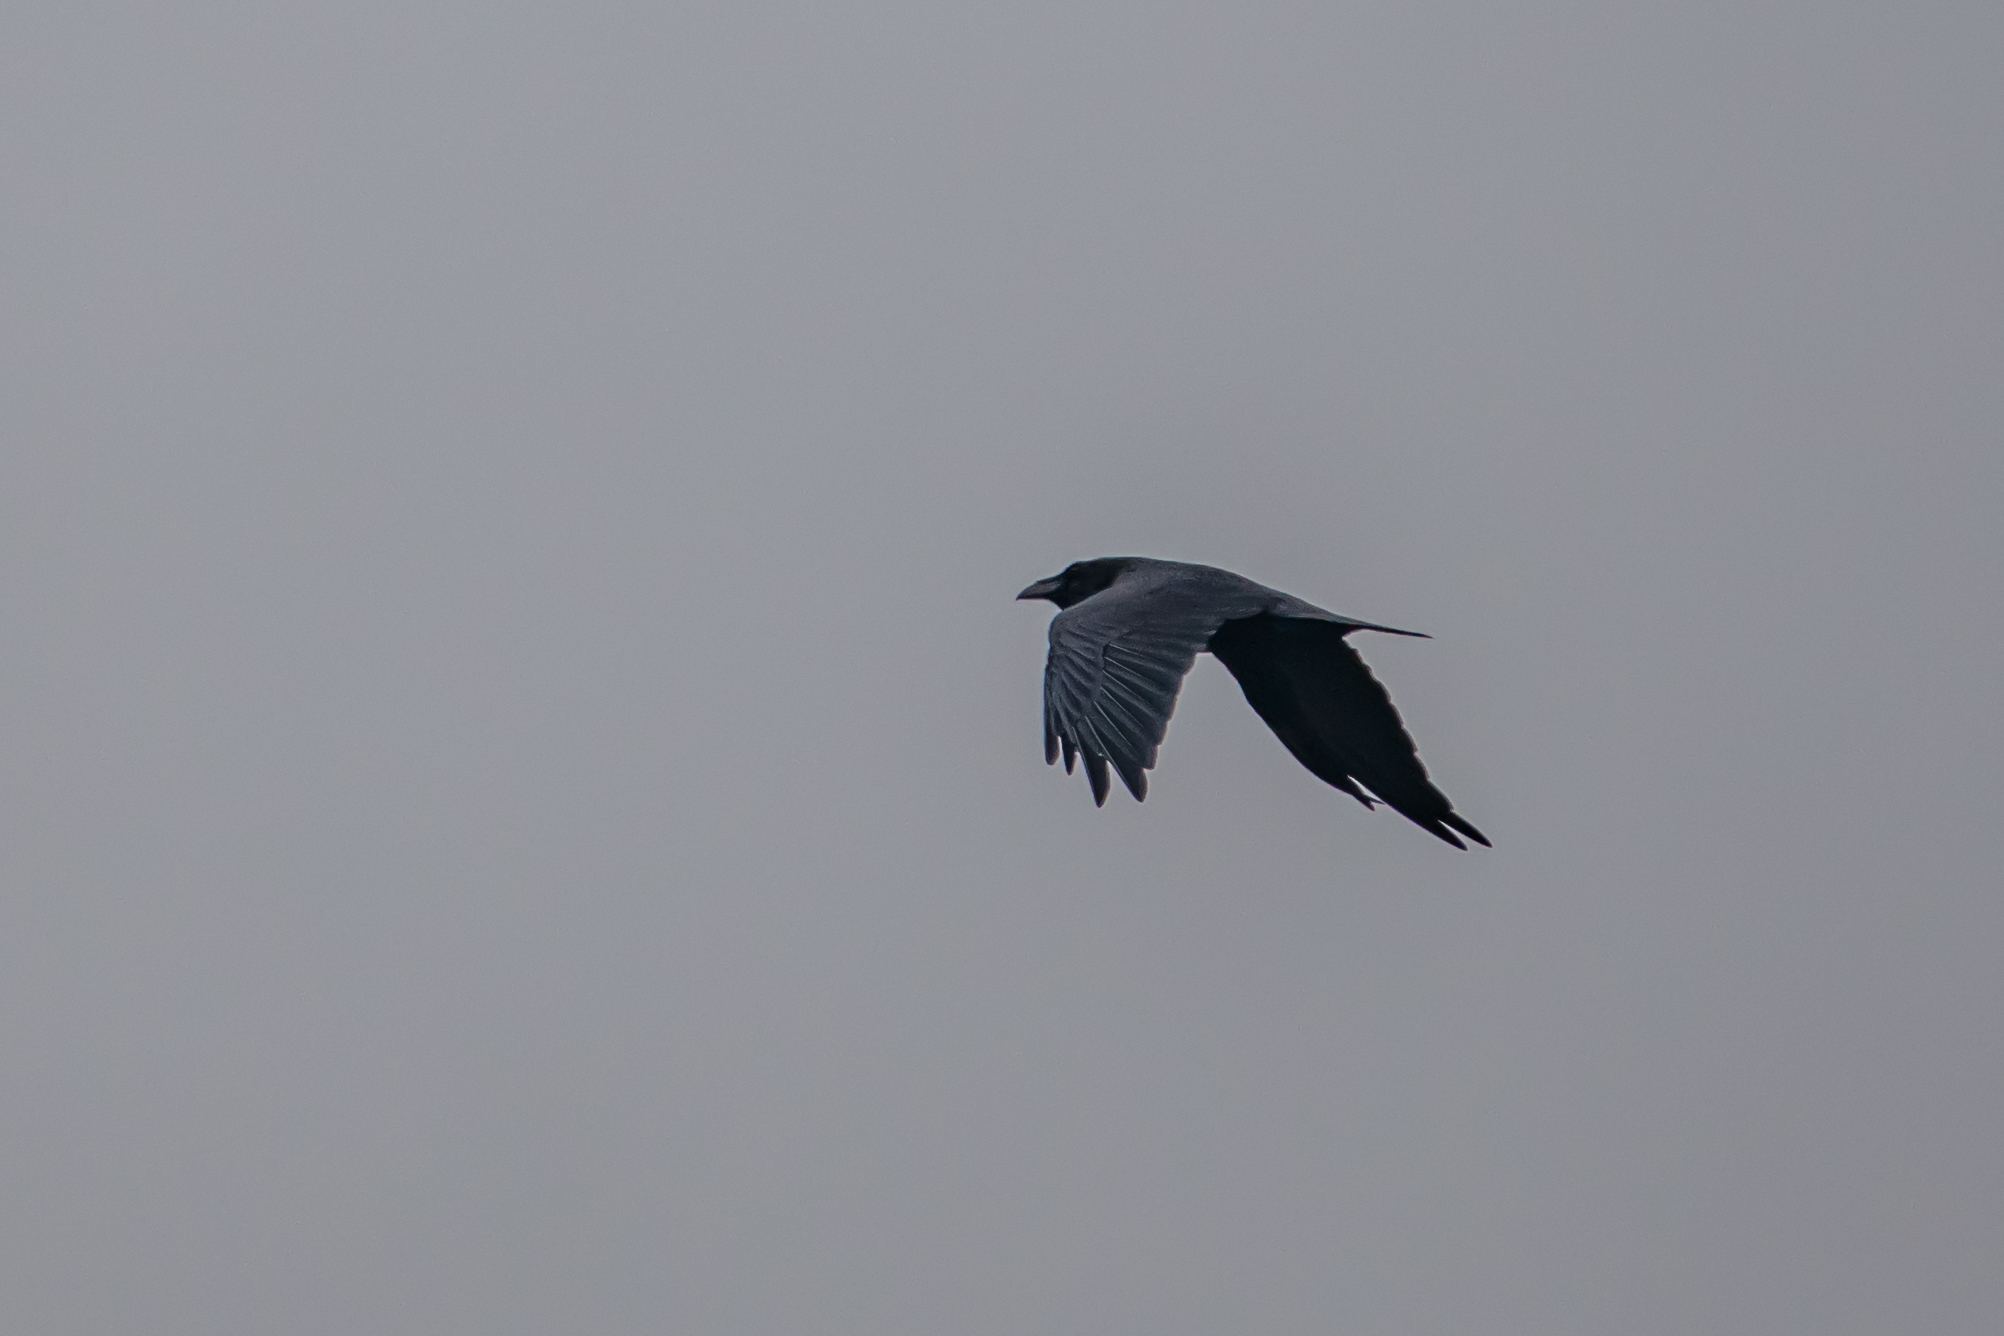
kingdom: Animalia
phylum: Chordata
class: Aves
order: Passeriformes
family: Corvidae
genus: Corvus
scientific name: Corvus corax
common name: Common raven
